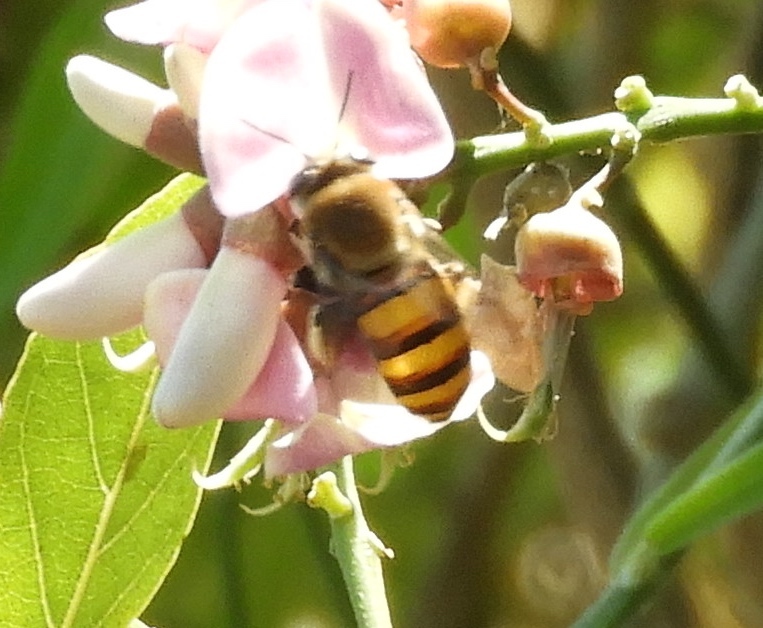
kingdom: Animalia
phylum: Arthropoda
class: Insecta
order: Hymenoptera
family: Apidae
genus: Centris
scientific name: Centris aethyctera
